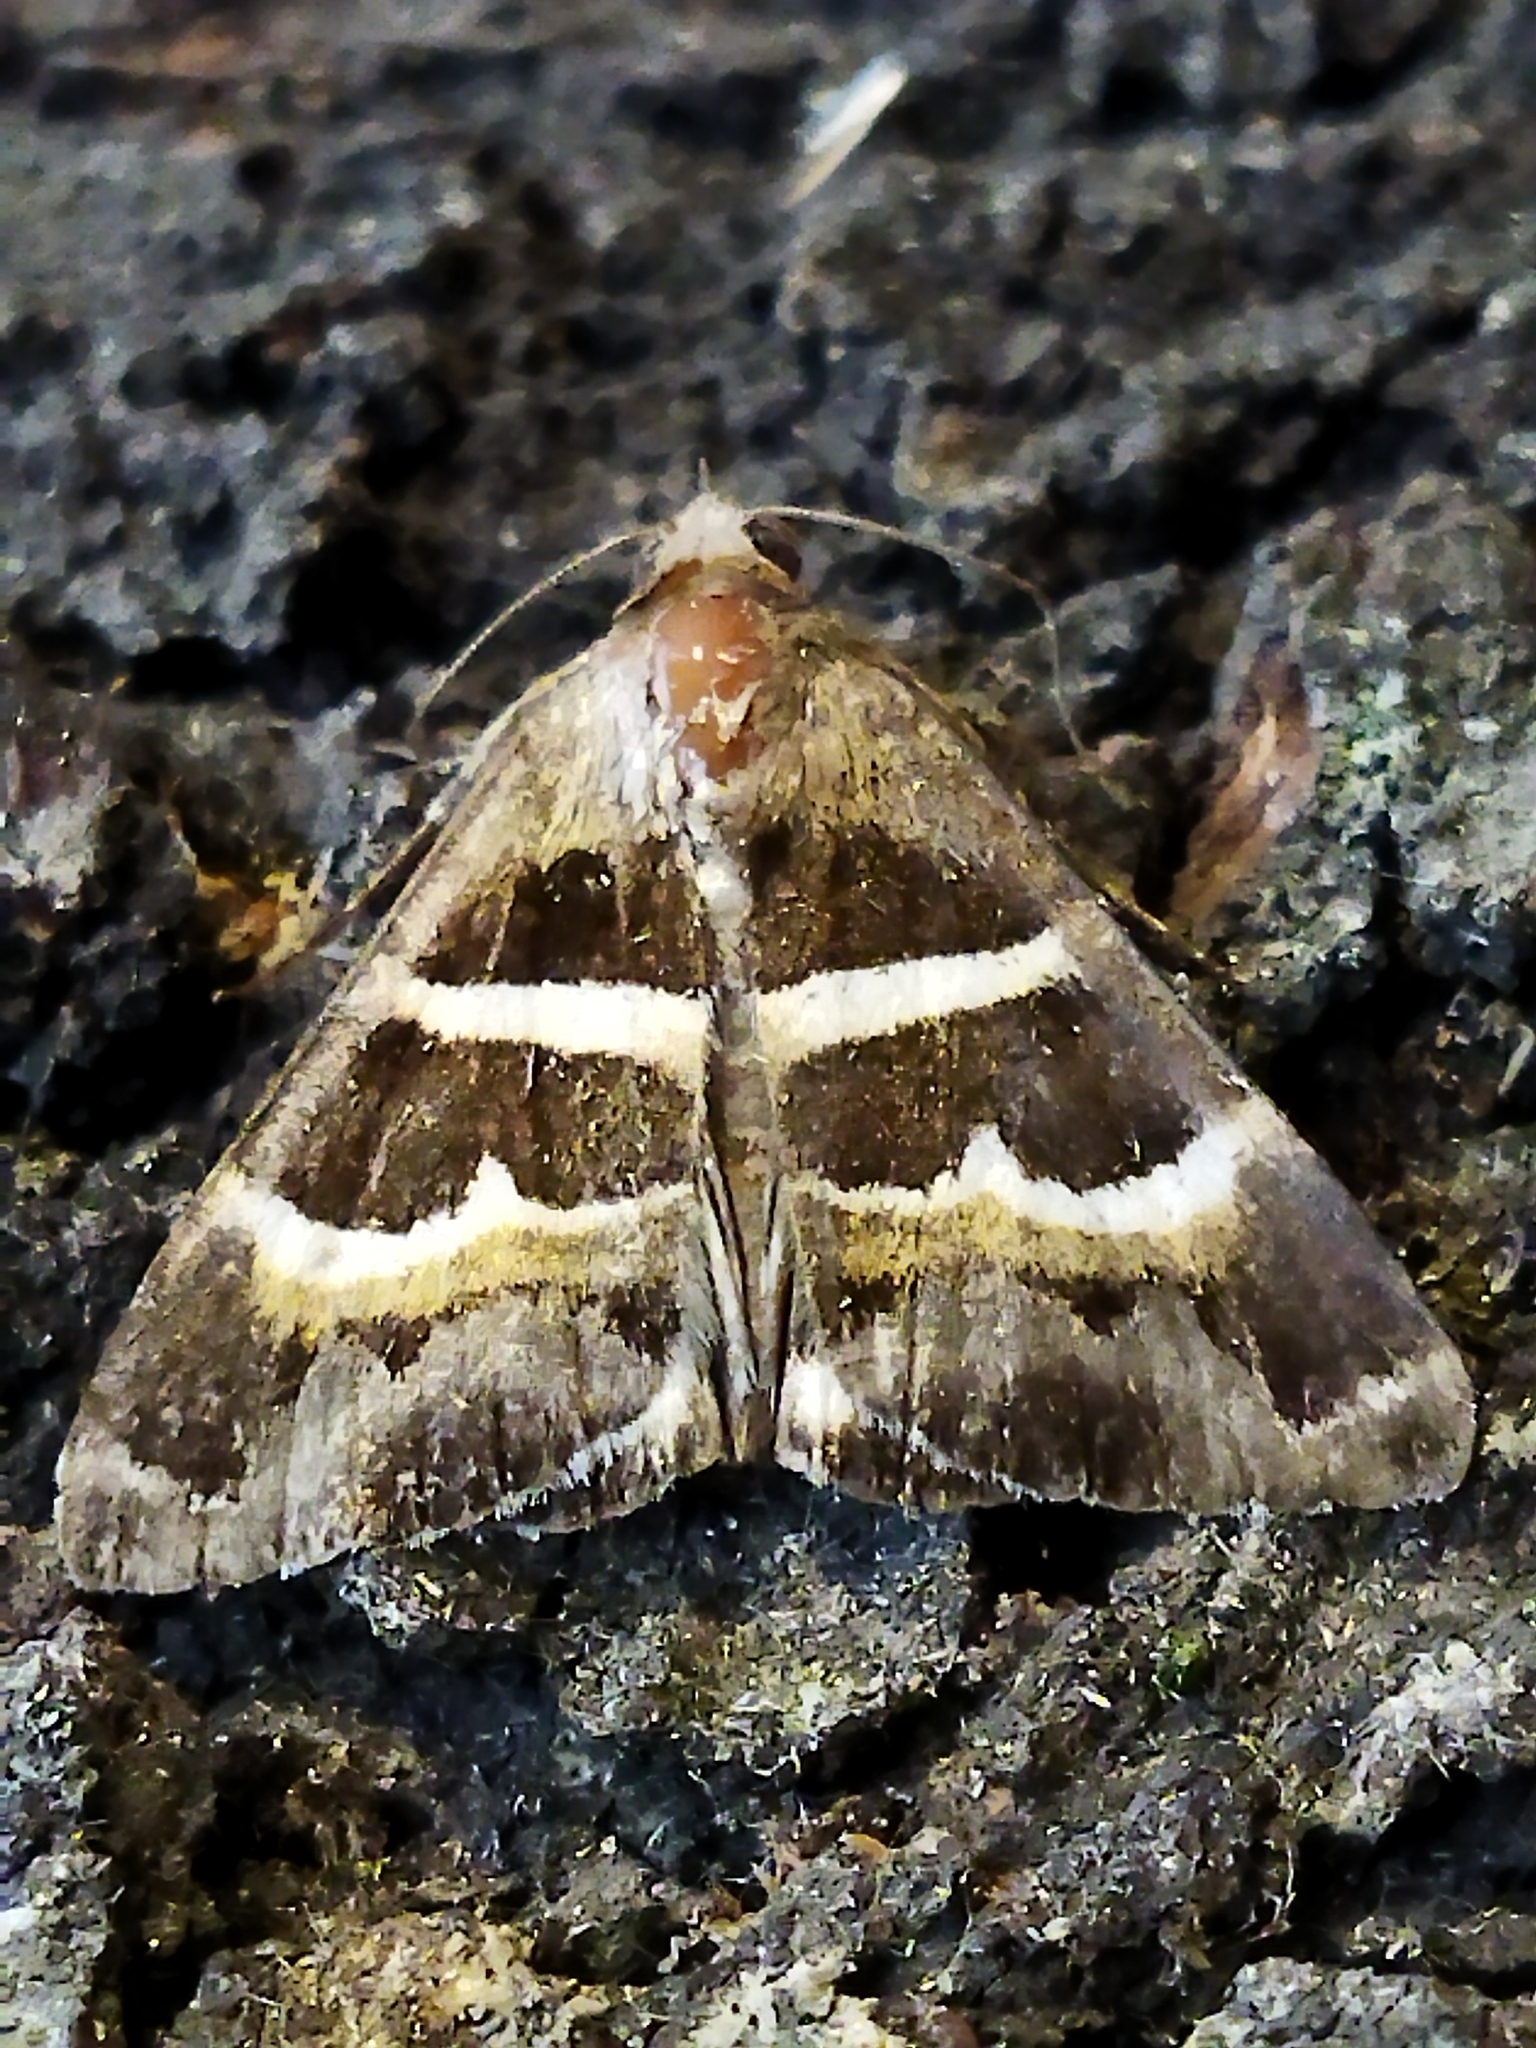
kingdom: Animalia
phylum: Arthropoda
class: Insecta
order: Lepidoptera
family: Erebidae
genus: Grammodes
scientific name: Grammodes stolida
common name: Geometrician
